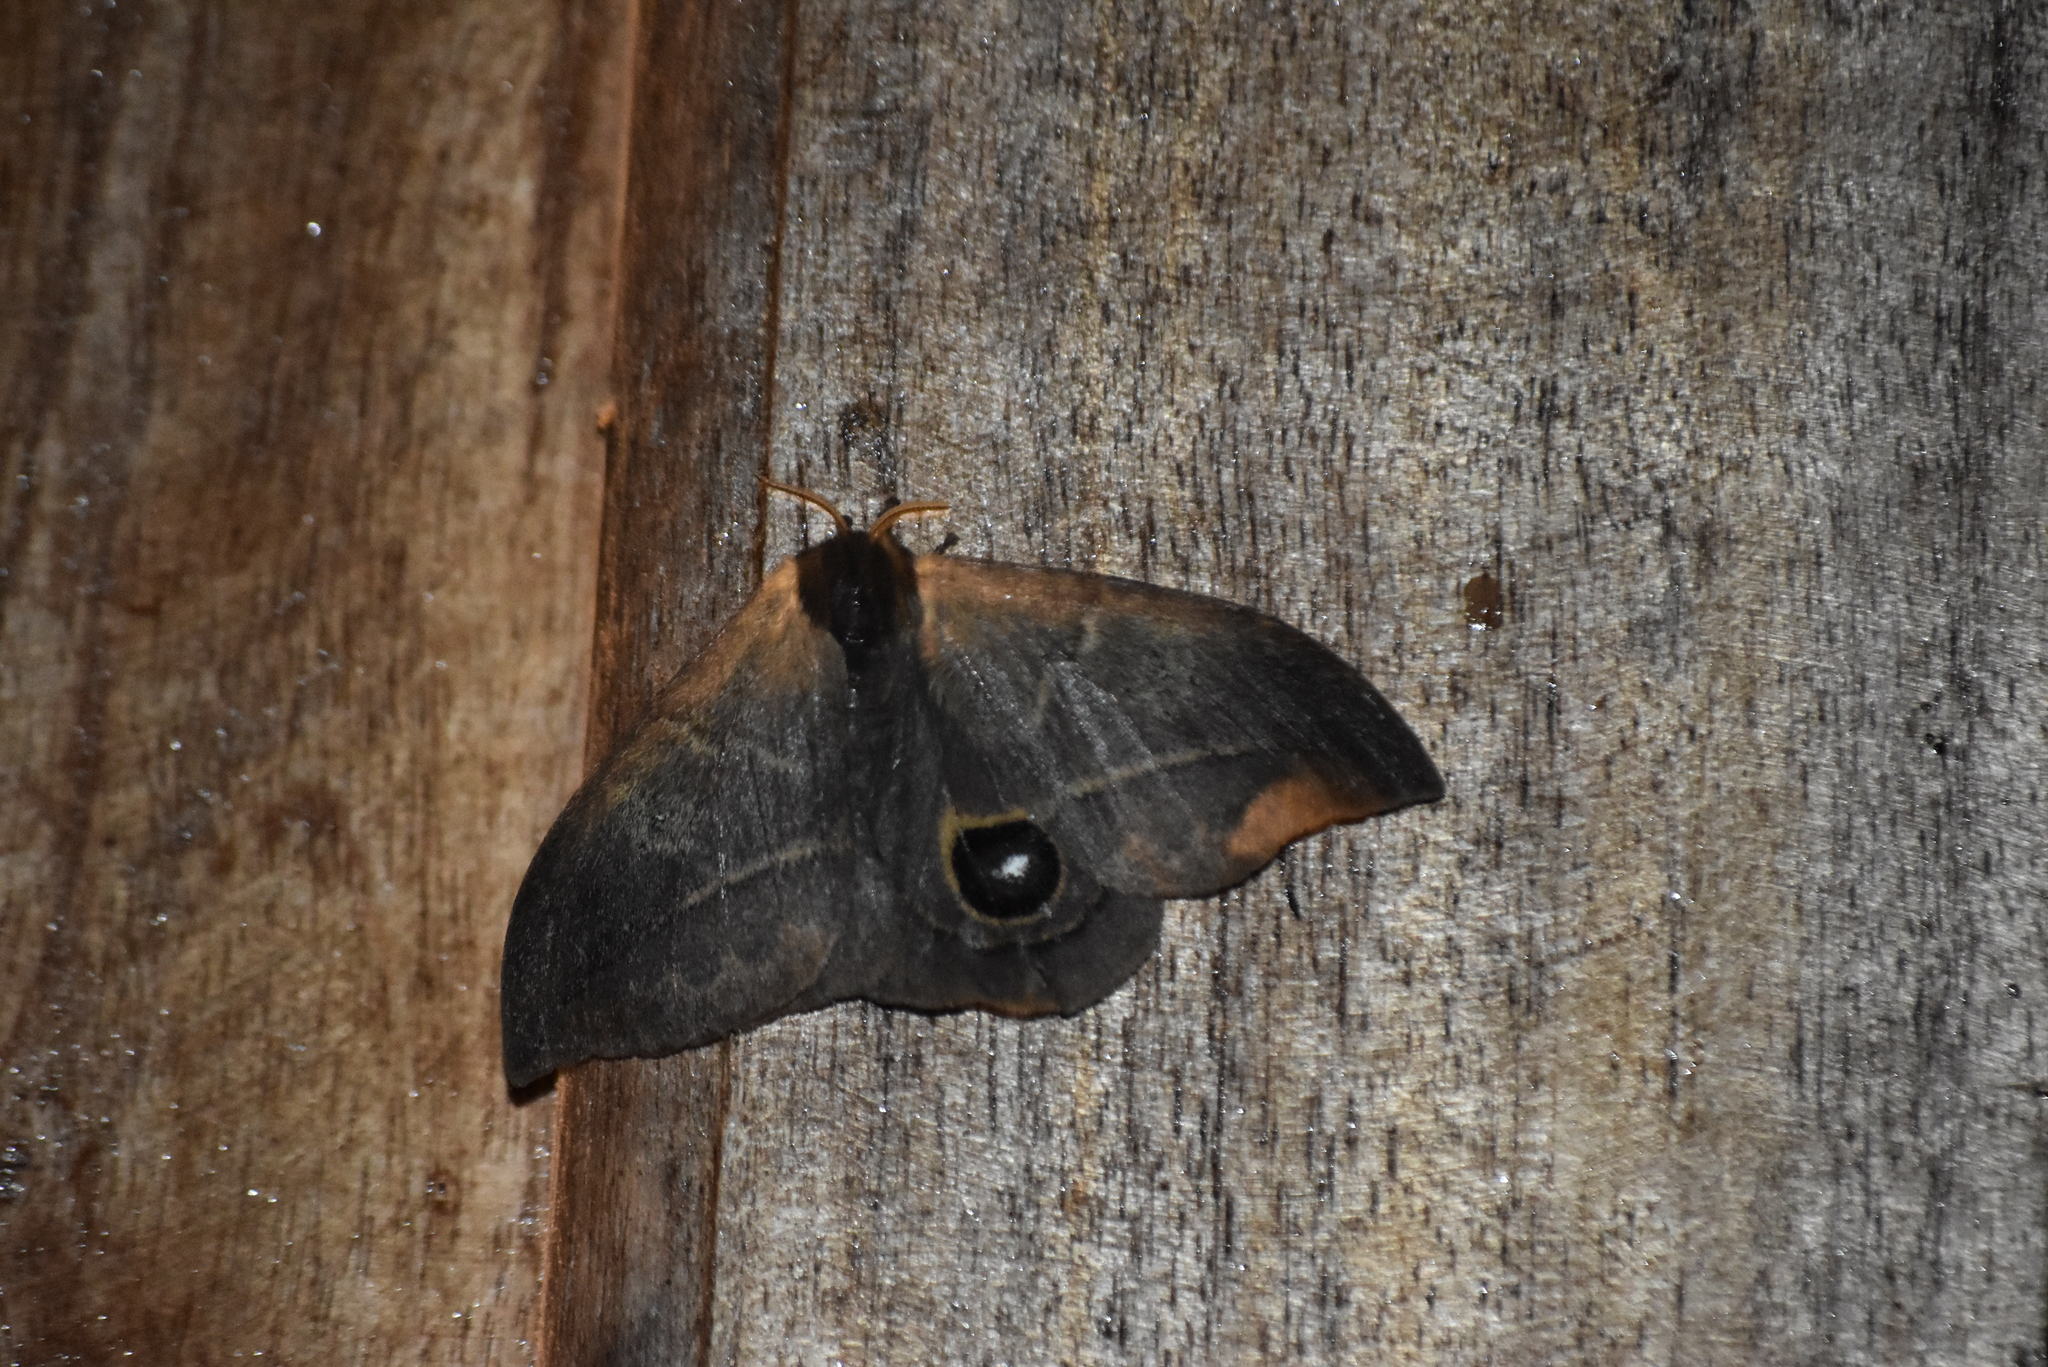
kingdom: Animalia
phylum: Arthropoda
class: Insecta
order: Lepidoptera
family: Saturniidae
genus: Automeris
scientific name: Automeris tristis
